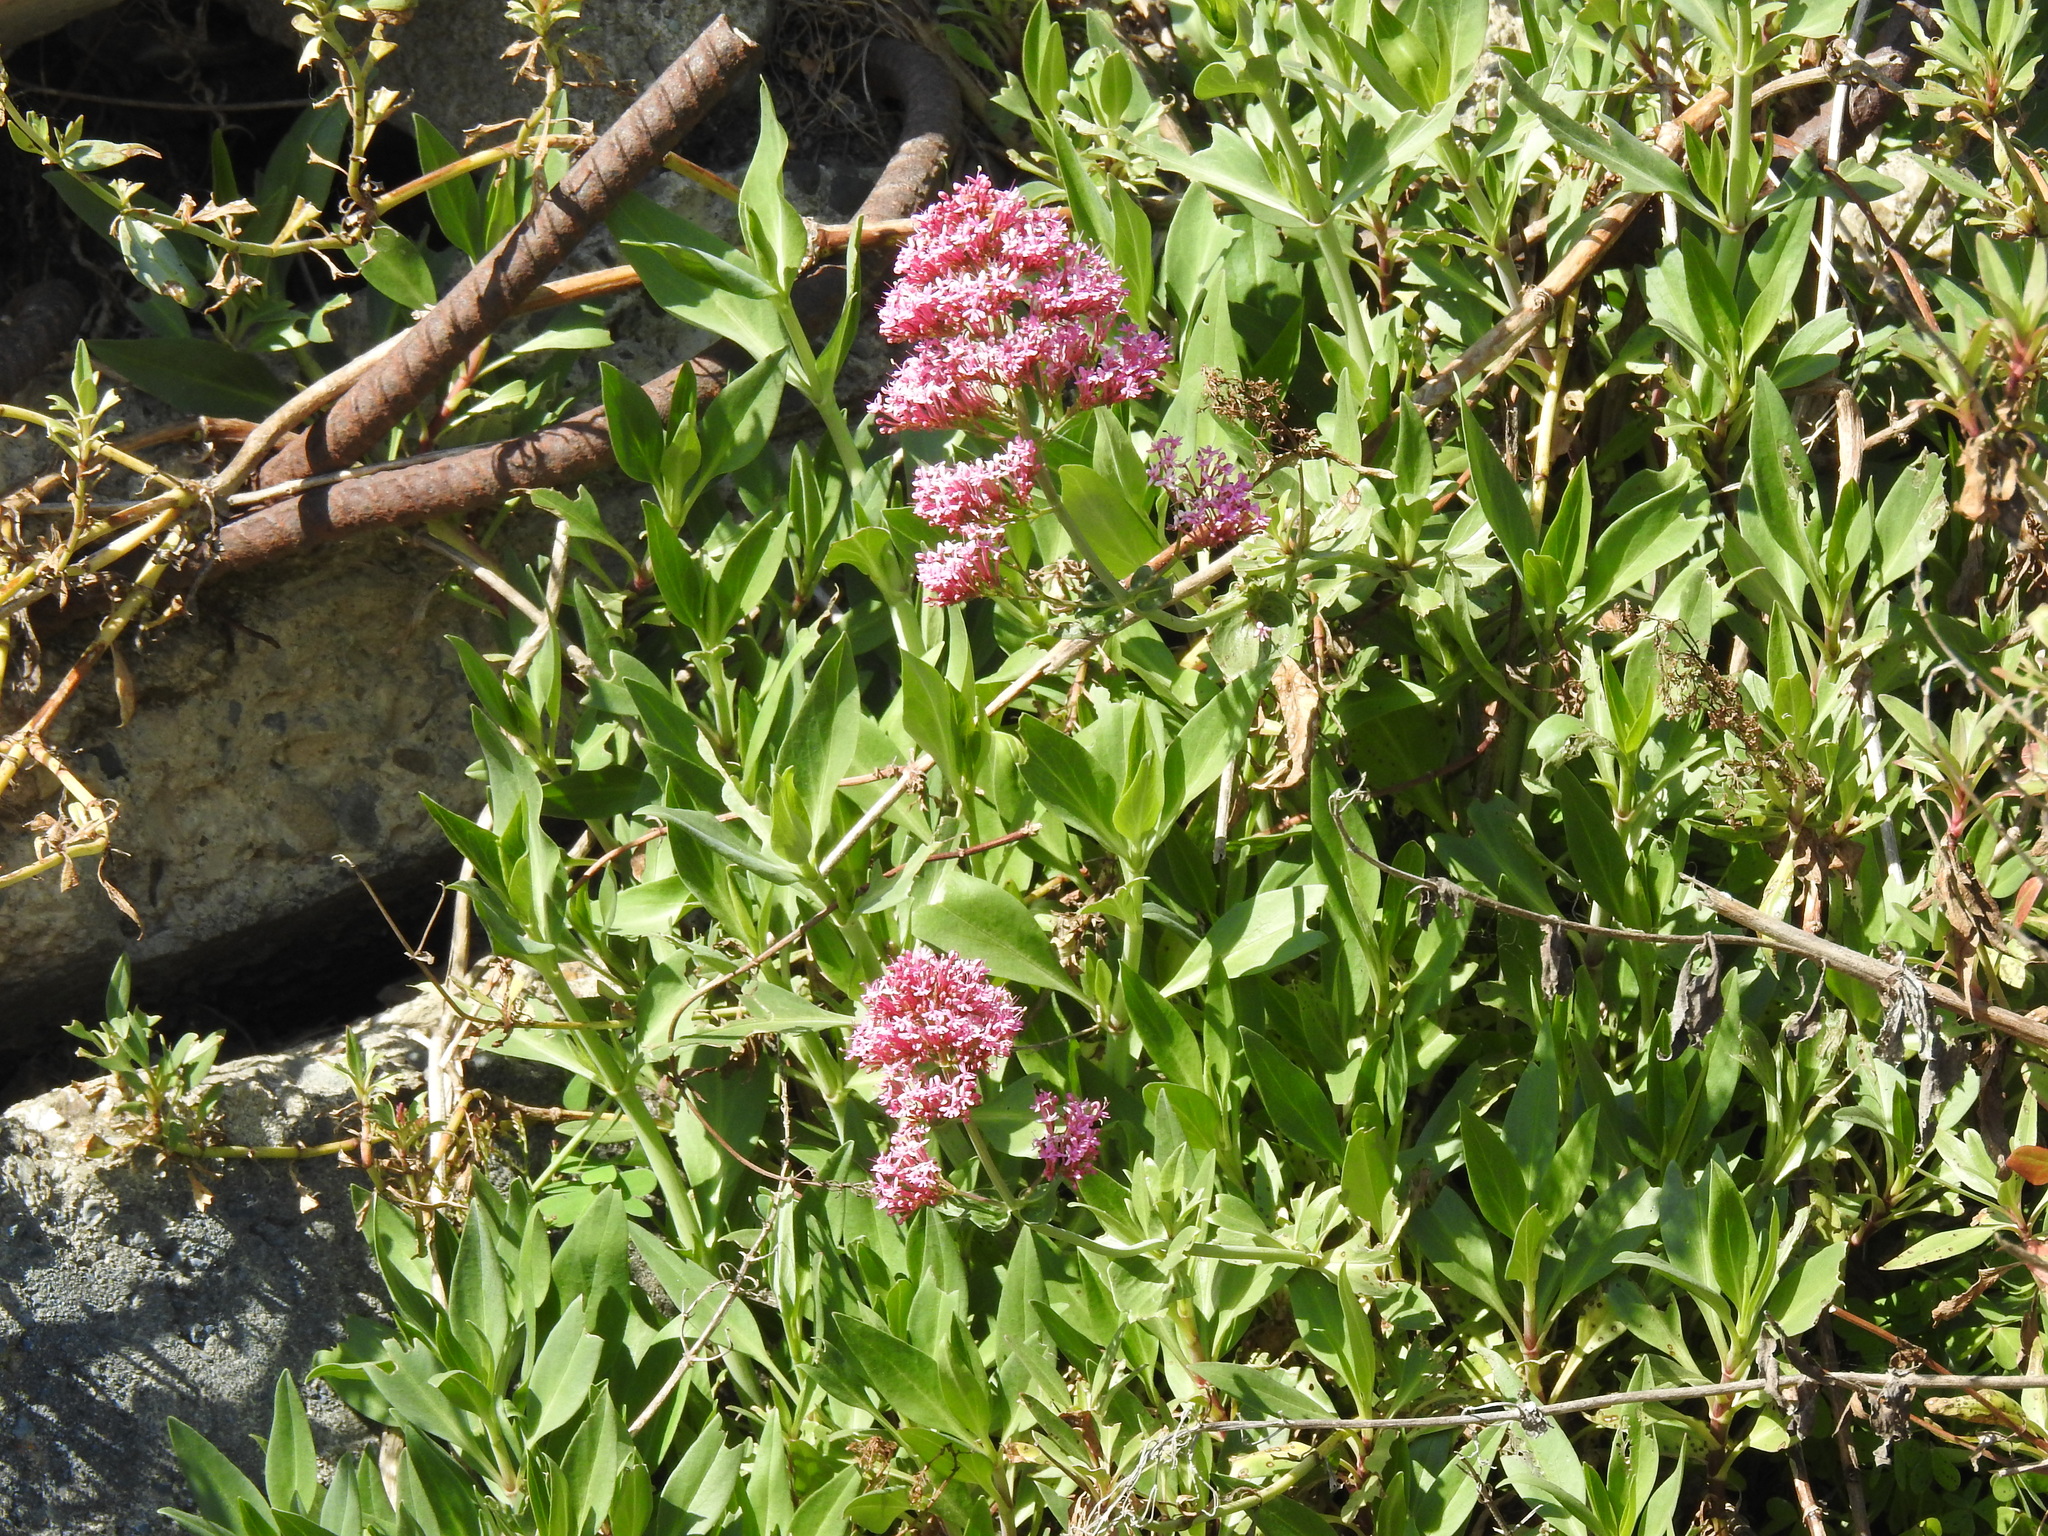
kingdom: Plantae
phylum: Tracheophyta
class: Magnoliopsida
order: Dipsacales
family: Caprifoliaceae
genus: Centranthus
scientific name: Centranthus ruber
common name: Red valerian
